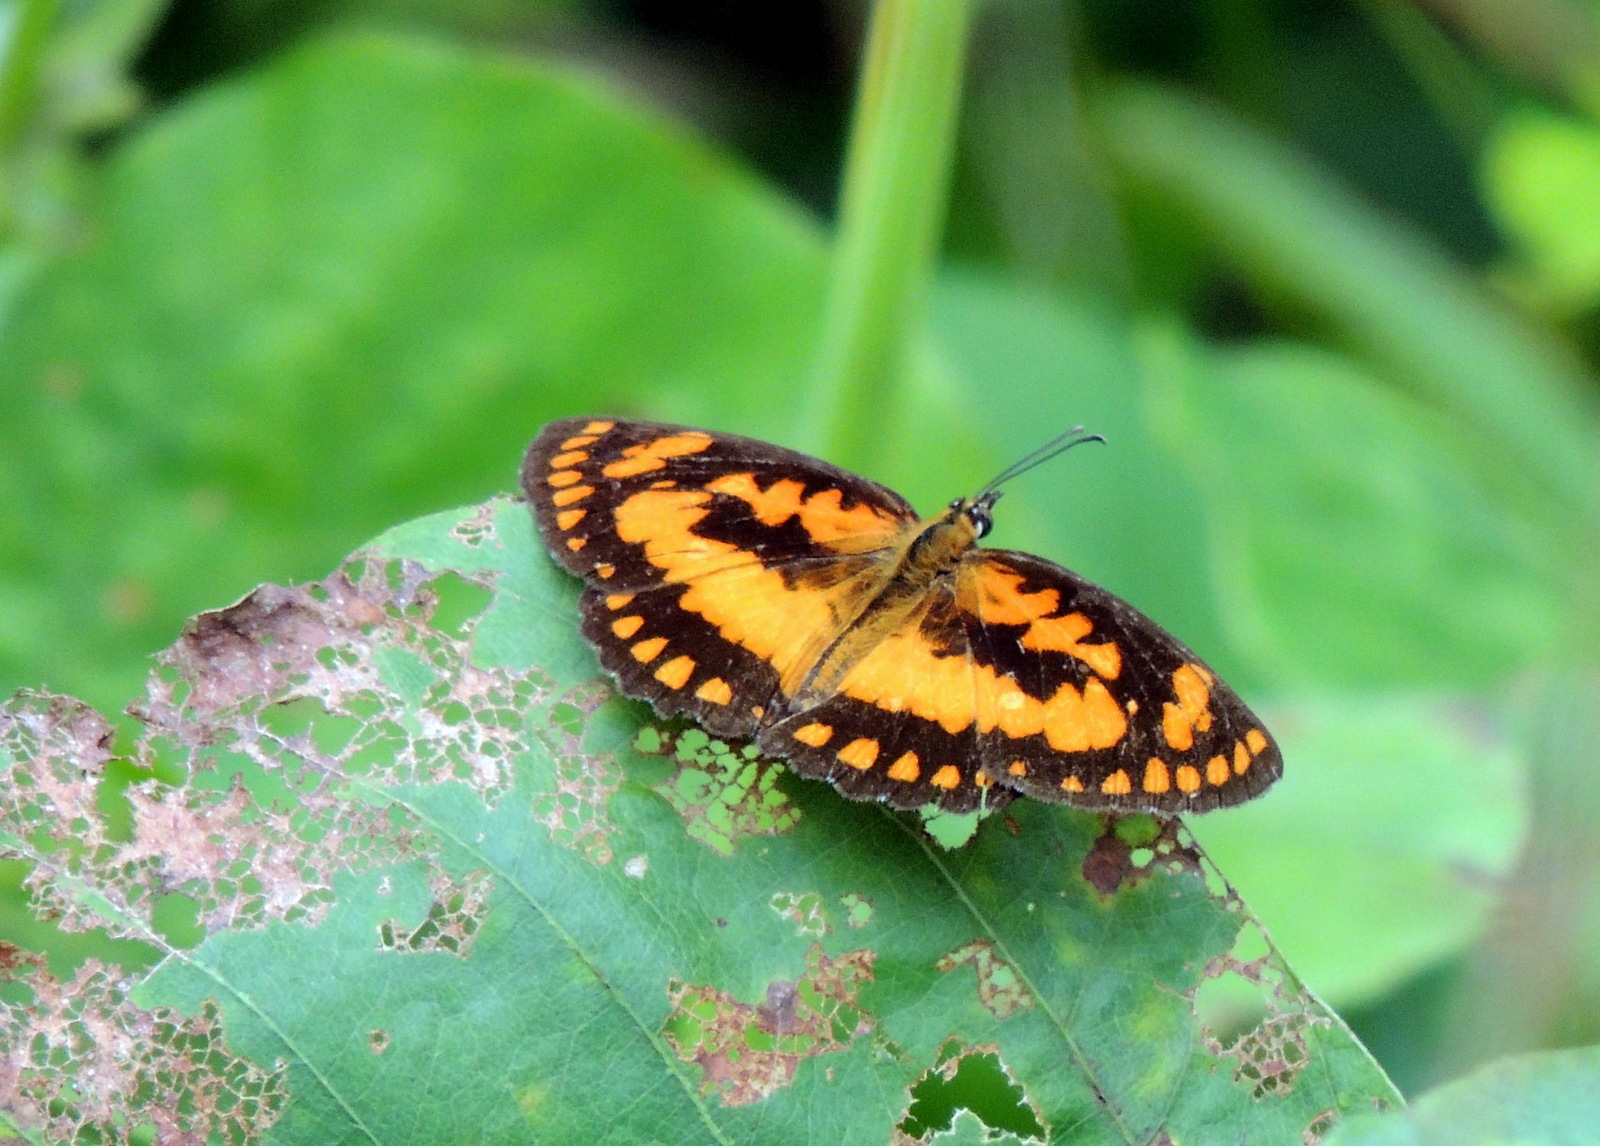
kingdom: Animalia
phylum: Arthropoda
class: Insecta
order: Lepidoptera
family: Nymphalidae
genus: Byblia
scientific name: Byblia anvatara
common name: African joker
